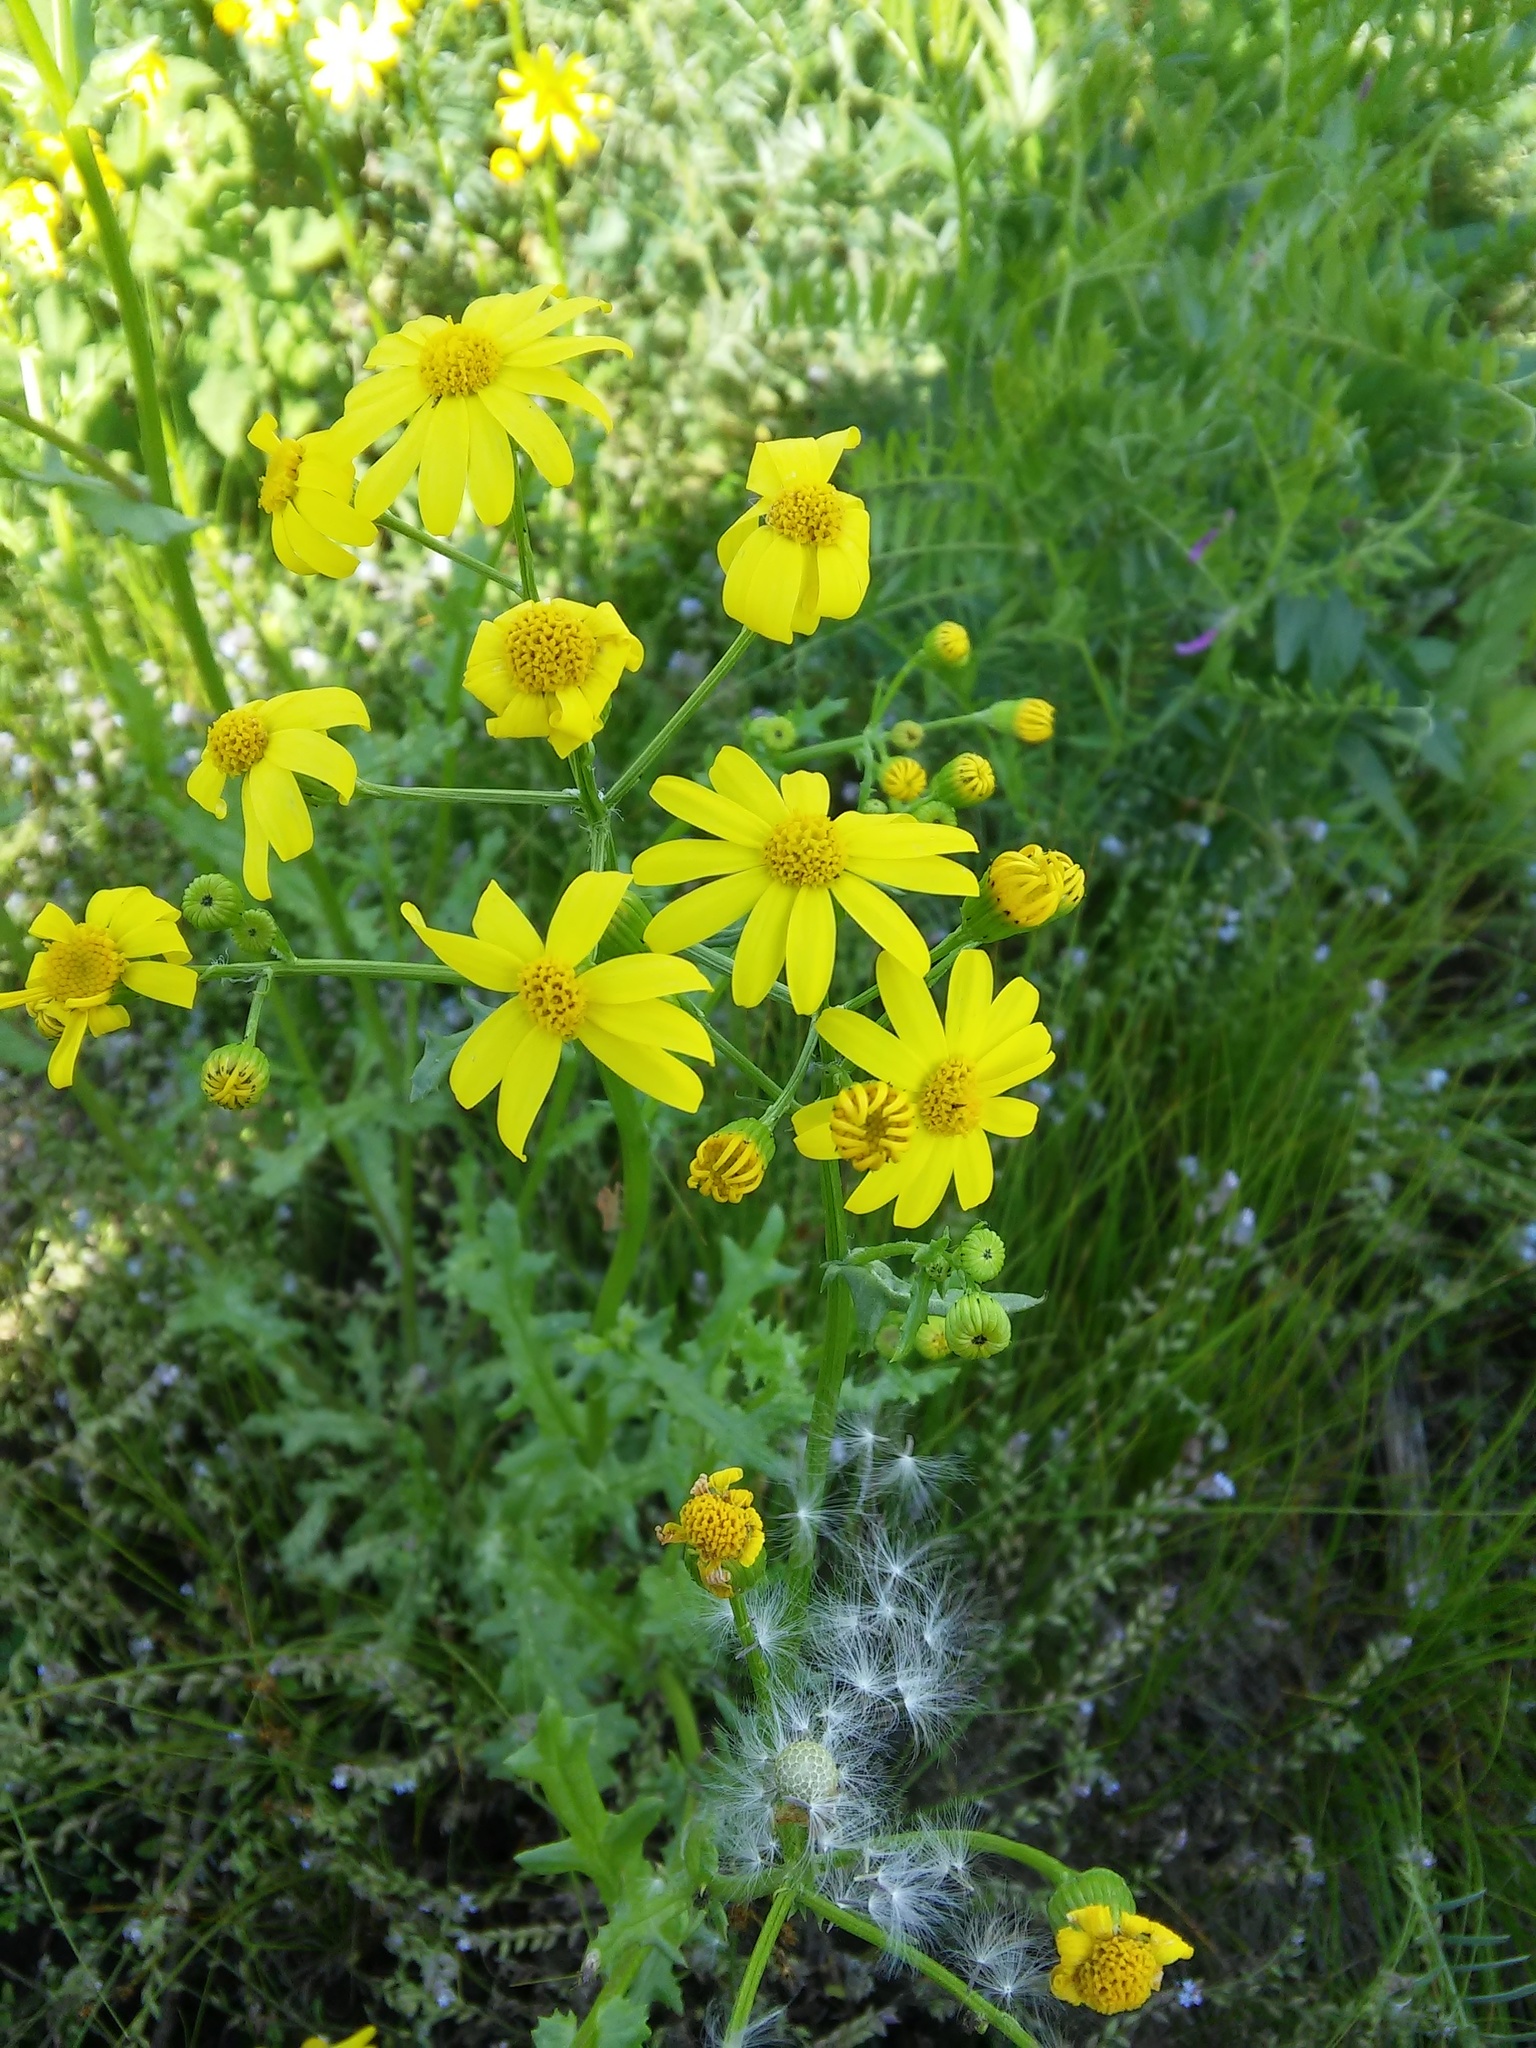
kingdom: Plantae
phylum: Tracheophyta
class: Magnoliopsida
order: Asterales
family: Asteraceae
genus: Senecio
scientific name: Senecio vernalis
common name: Eastern groundsel
